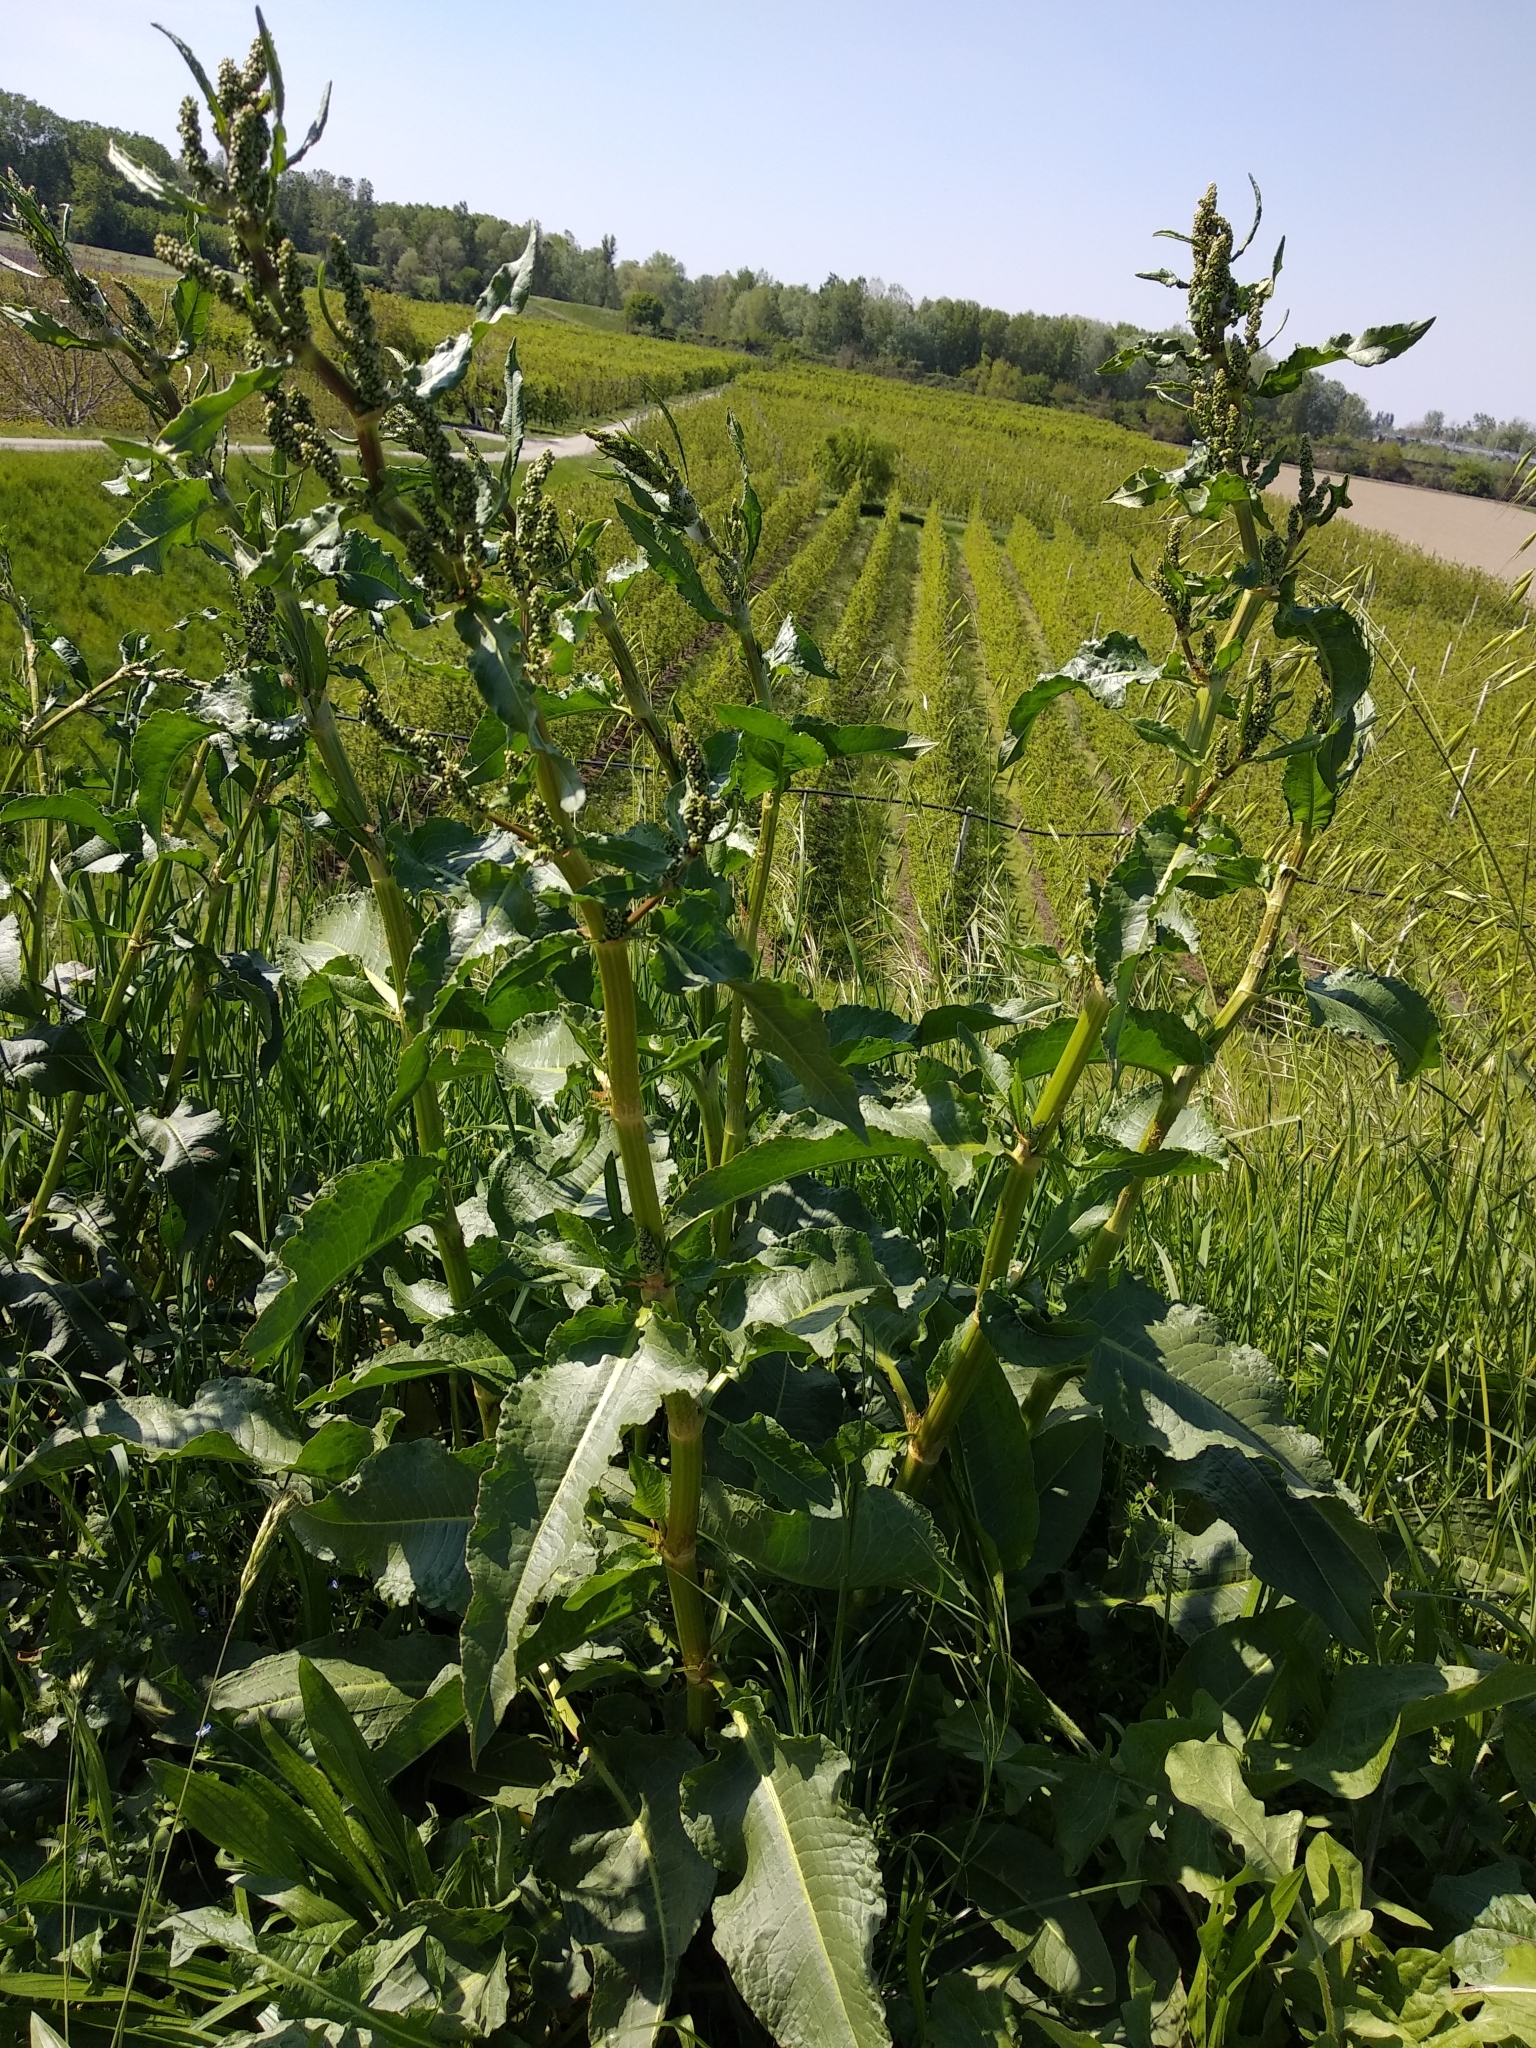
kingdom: Plantae
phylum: Tracheophyta
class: Magnoliopsida
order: Caryophyllales
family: Polygonaceae
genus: Rumex
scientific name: Rumex crispus
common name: Curled dock
